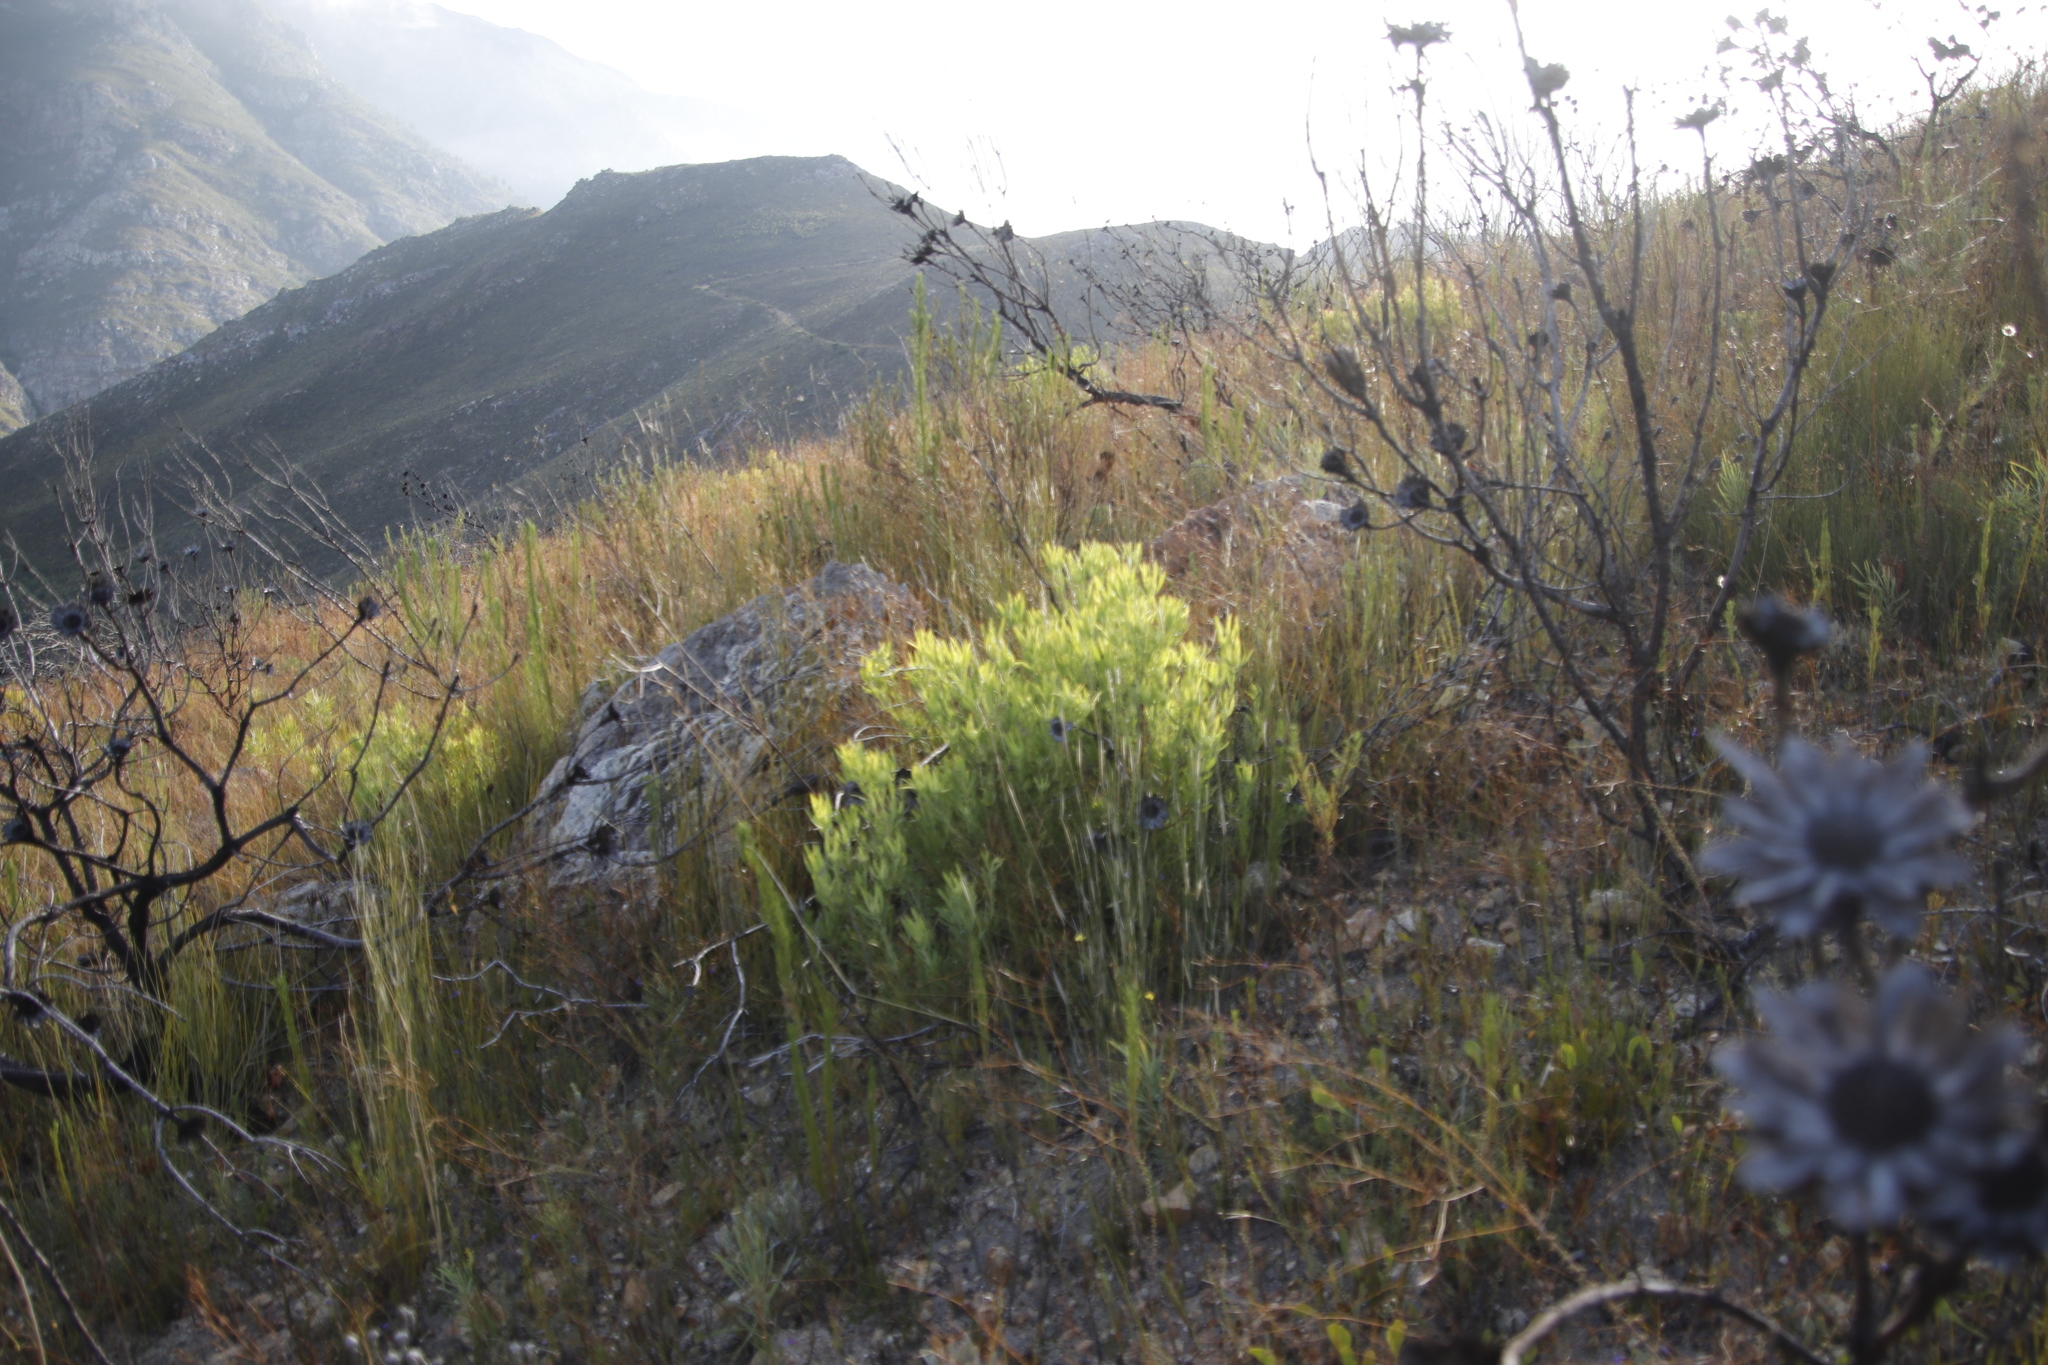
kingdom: Plantae
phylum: Tracheophyta
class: Magnoliopsida
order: Proteales
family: Proteaceae
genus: Leucadendron
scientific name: Leucadendron salignum
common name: Common sunshine conebush
